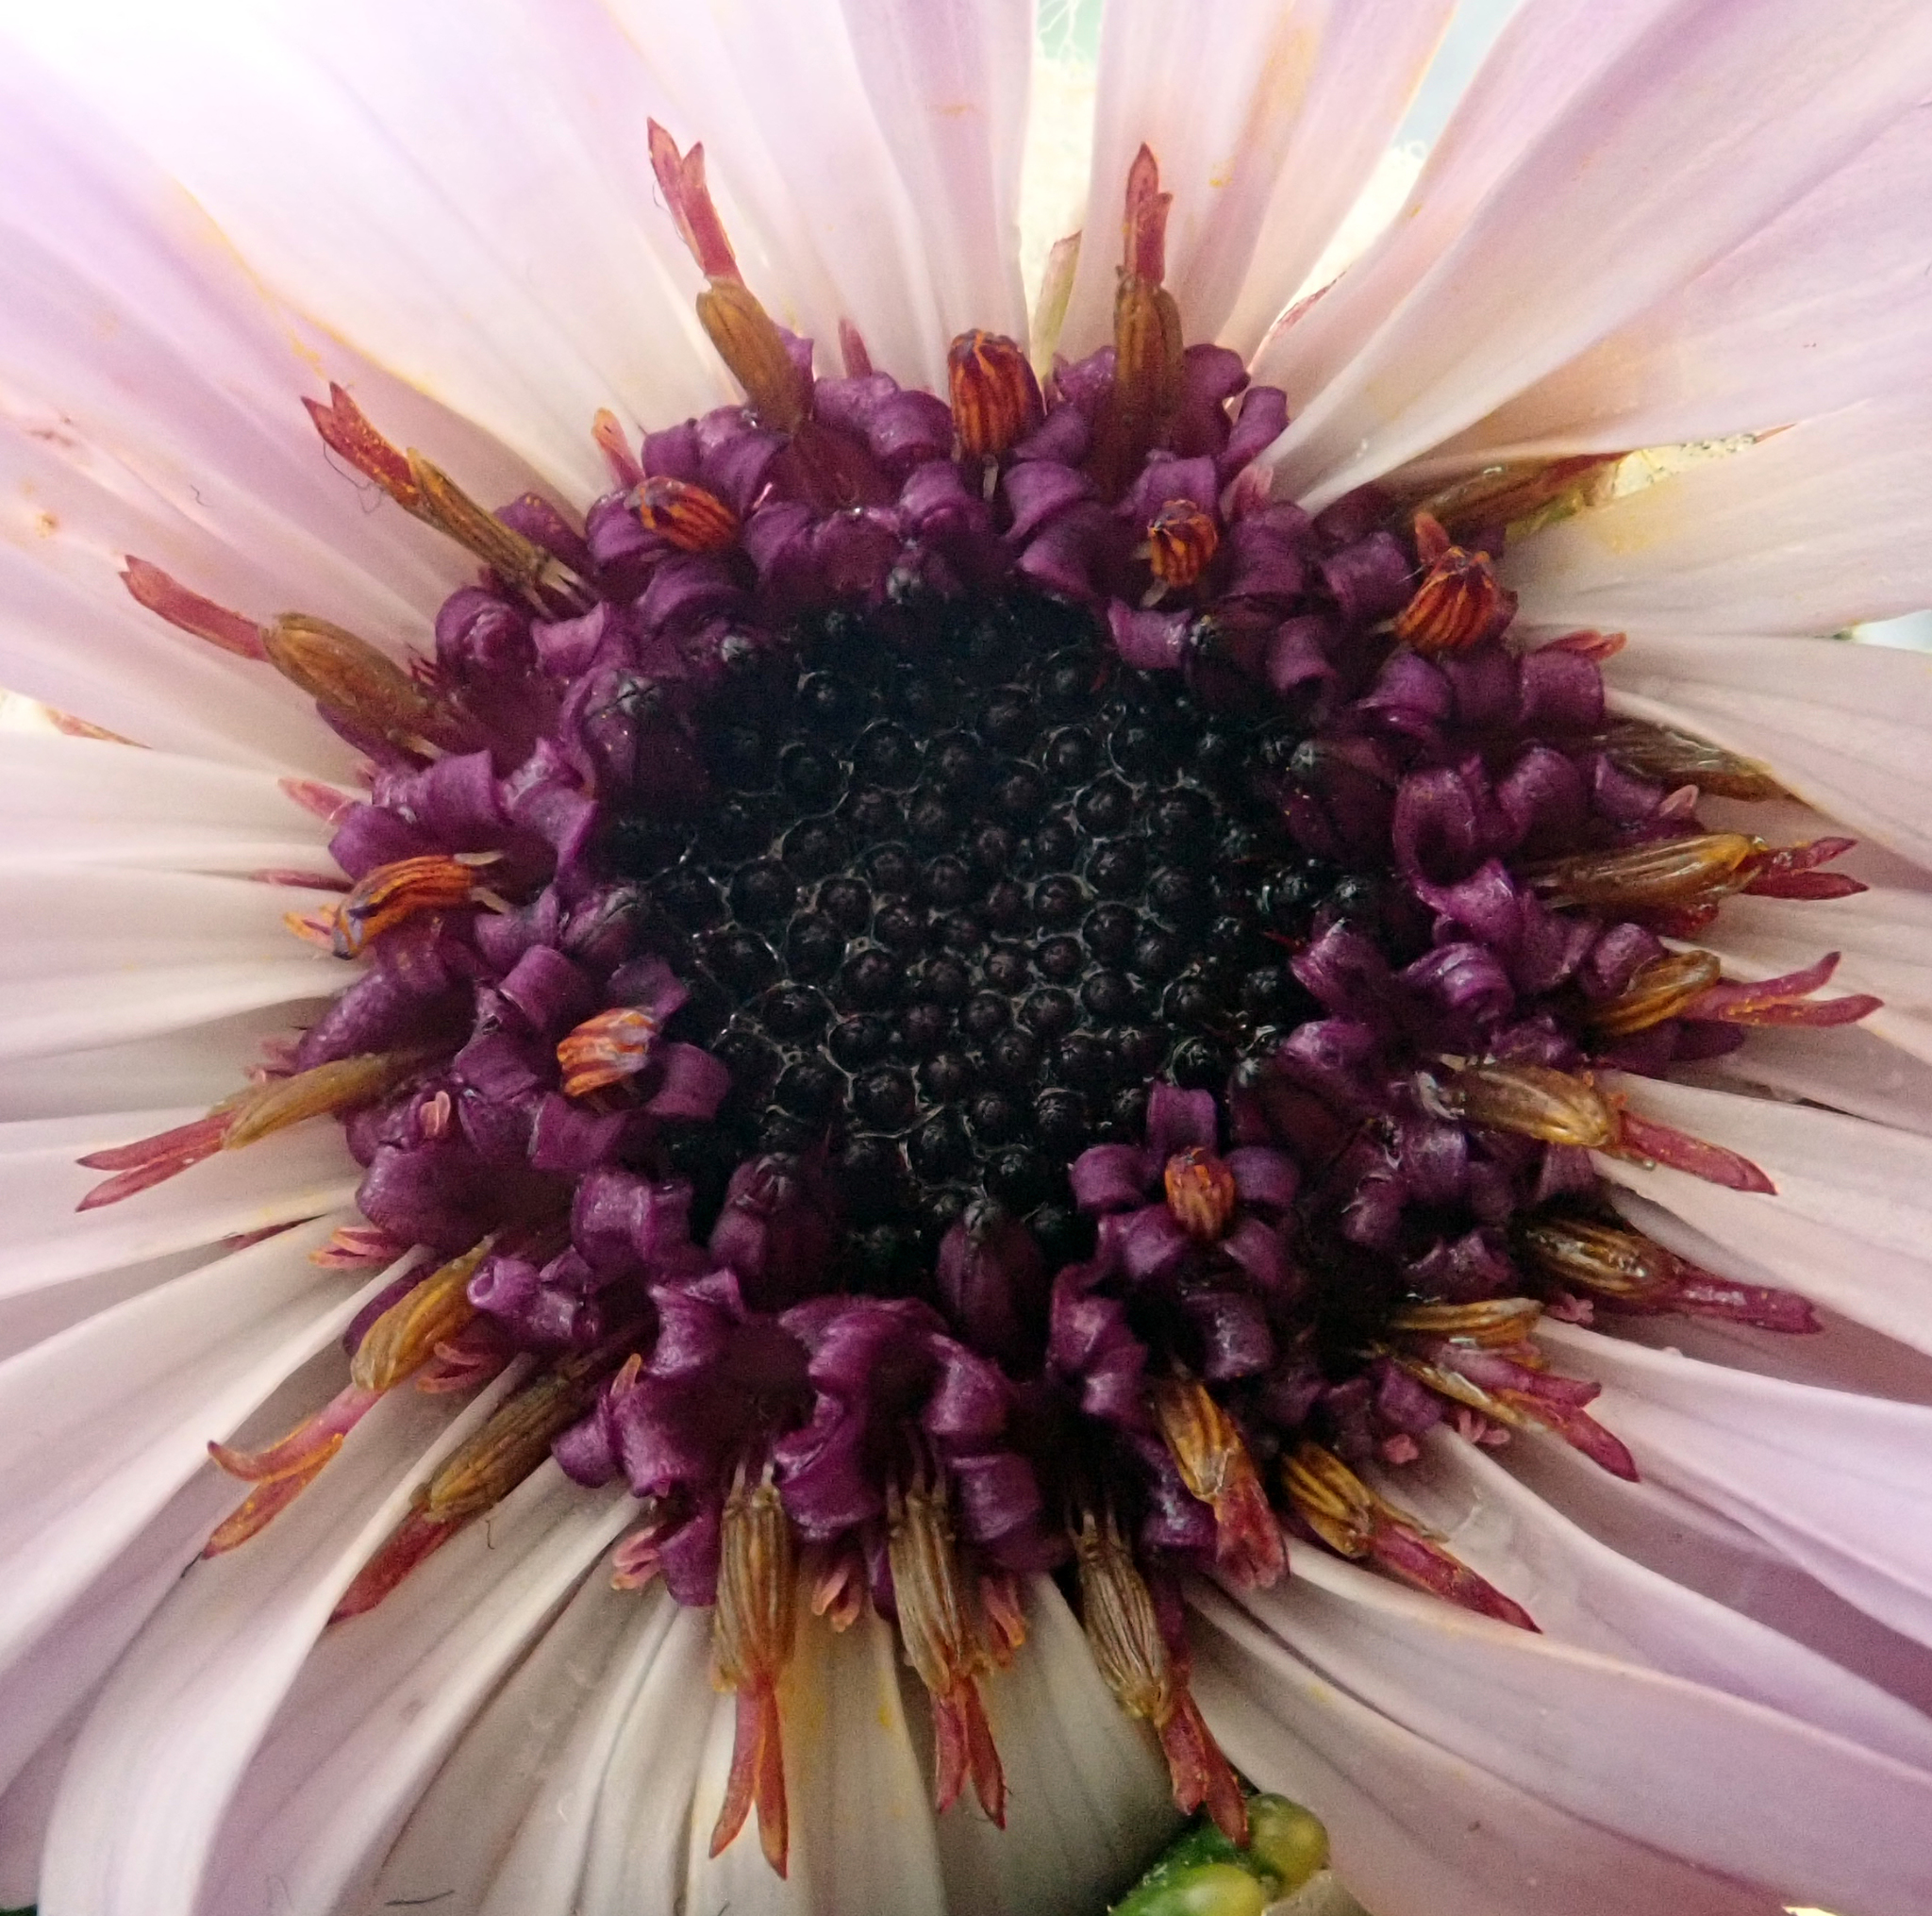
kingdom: Plantae
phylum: Tracheophyta
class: Magnoliopsida
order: Asterales
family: Asteraceae
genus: Macrolearia
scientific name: Macrolearia chathamica
